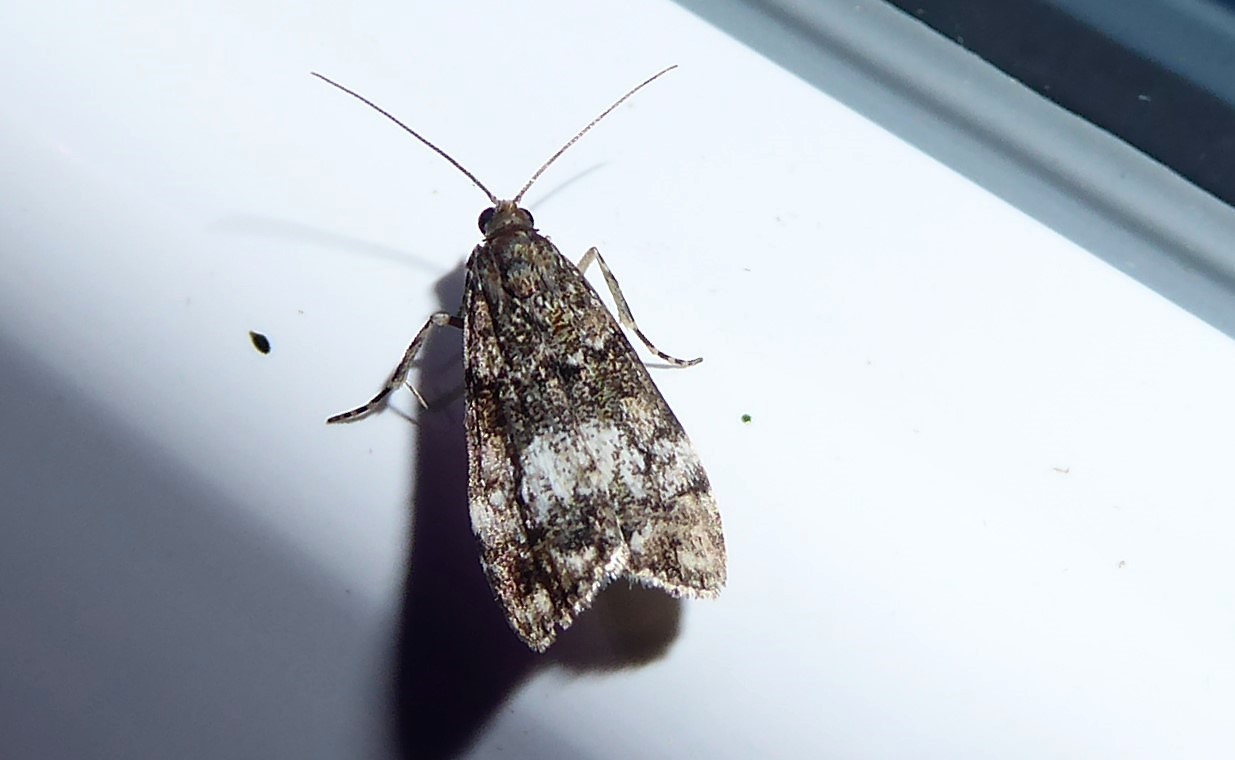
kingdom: Animalia
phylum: Arthropoda
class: Insecta
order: Lepidoptera
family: Crambidae
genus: Eudonia
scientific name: Eudonia minualis
